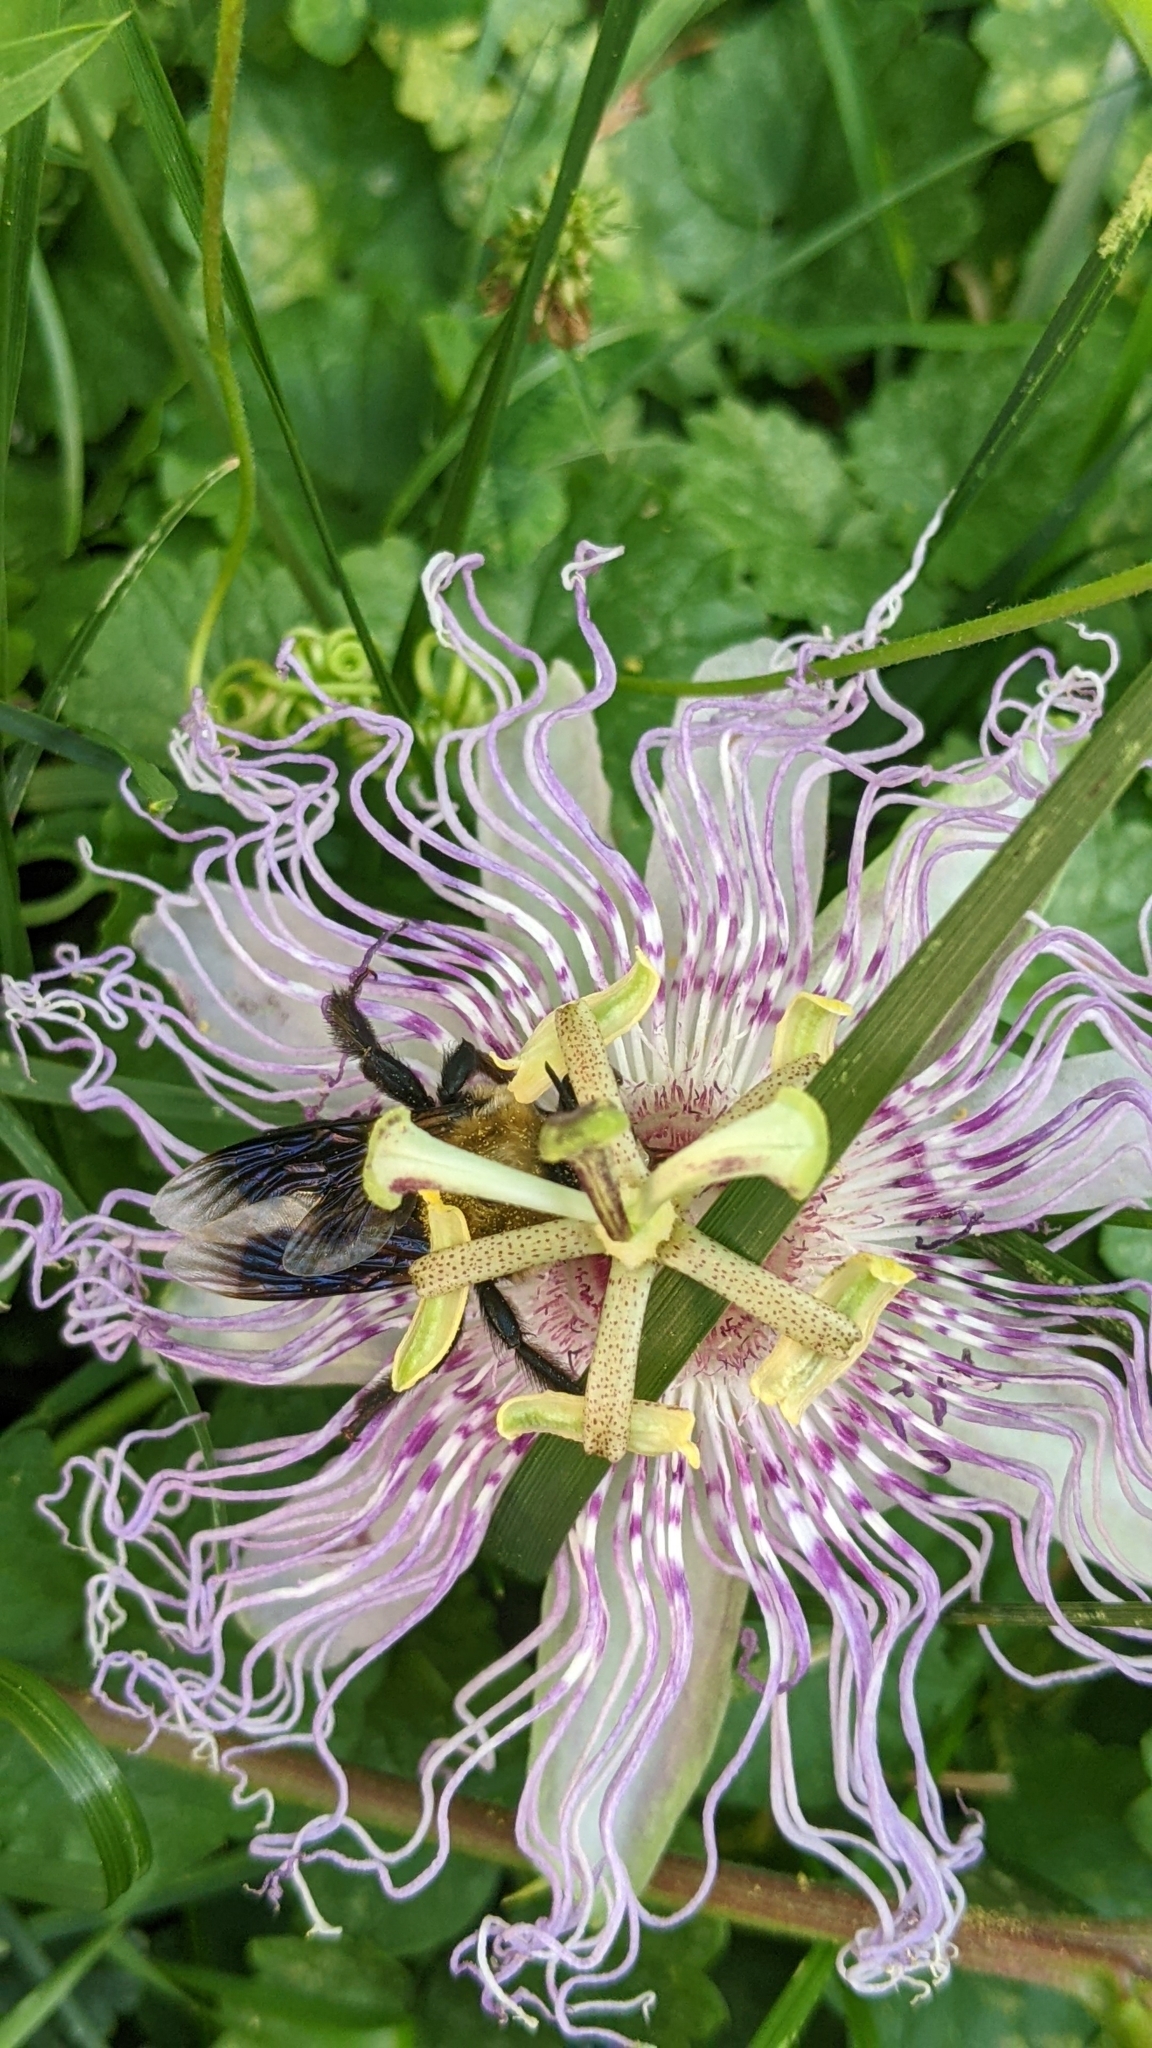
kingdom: Animalia
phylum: Arthropoda
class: Insecta
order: Hymenoptera
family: Apidae
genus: Xylocopa
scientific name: Xylocopa virginica
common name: Carpenter bee
